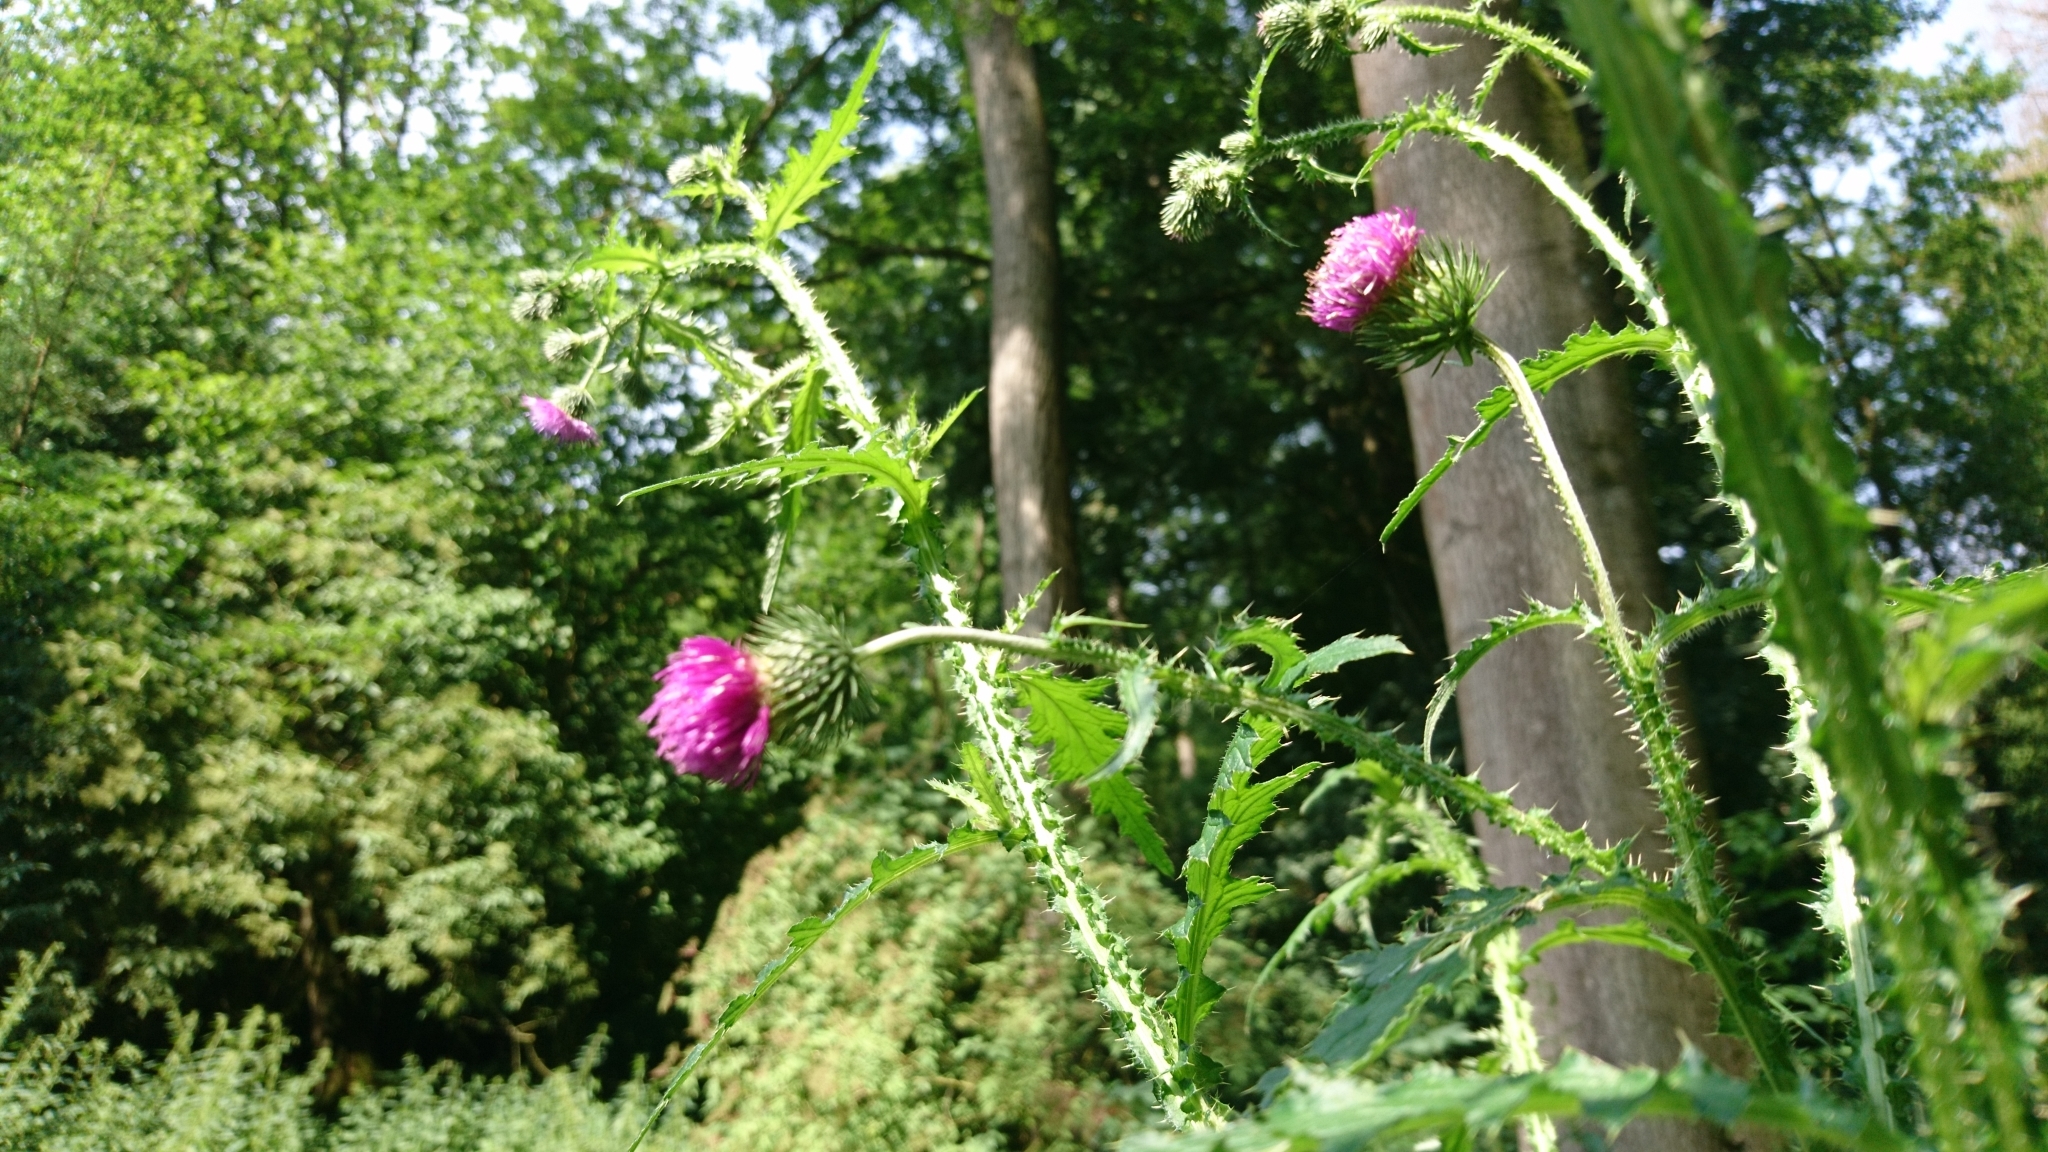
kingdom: Plantae
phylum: Tracheophyta
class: Magnoliopsida
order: Asterales
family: Asteraceae
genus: Carduus
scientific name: Carduus crispus
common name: Welted thistle
